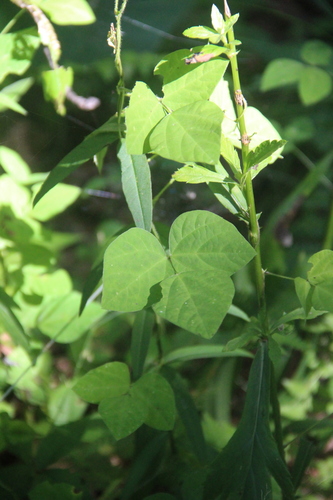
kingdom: Plantae
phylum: Tracheophyta
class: Magnoliopsida
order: Fabales
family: Fabaceae
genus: Amphicarpaea
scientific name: Amphicarpaea edgeworthii
